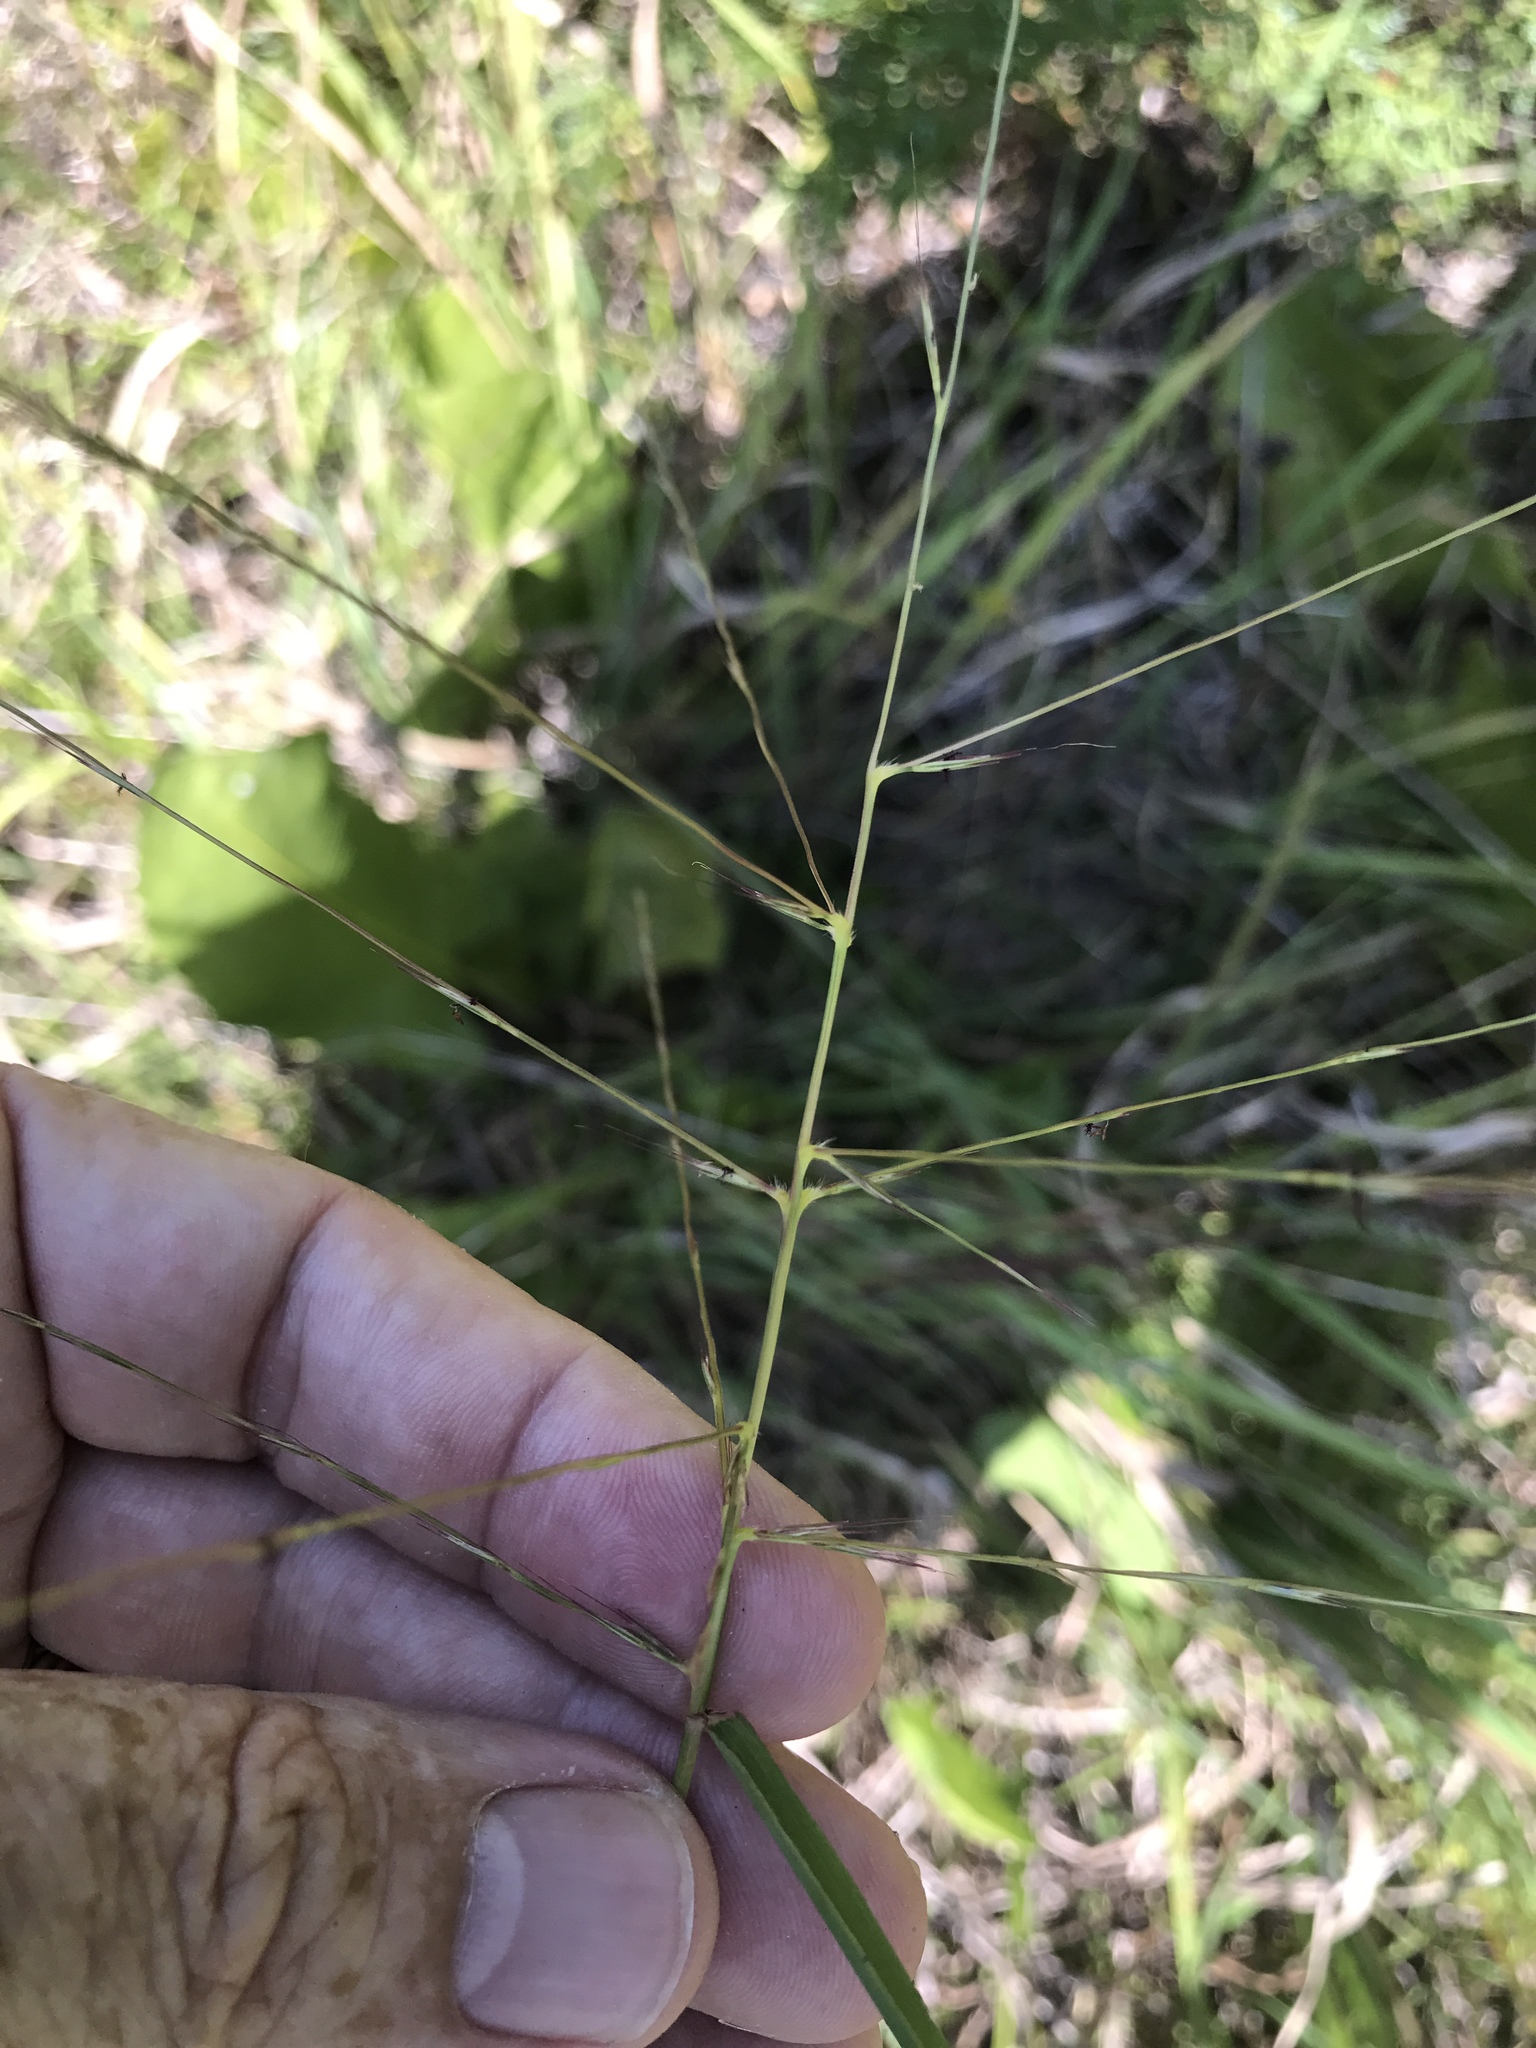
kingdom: Plantae
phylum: Tracheophyta
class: Liliopsida
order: Poales
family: Poaceae
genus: Gymnopogon
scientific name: Gymnopogon ambiguus
